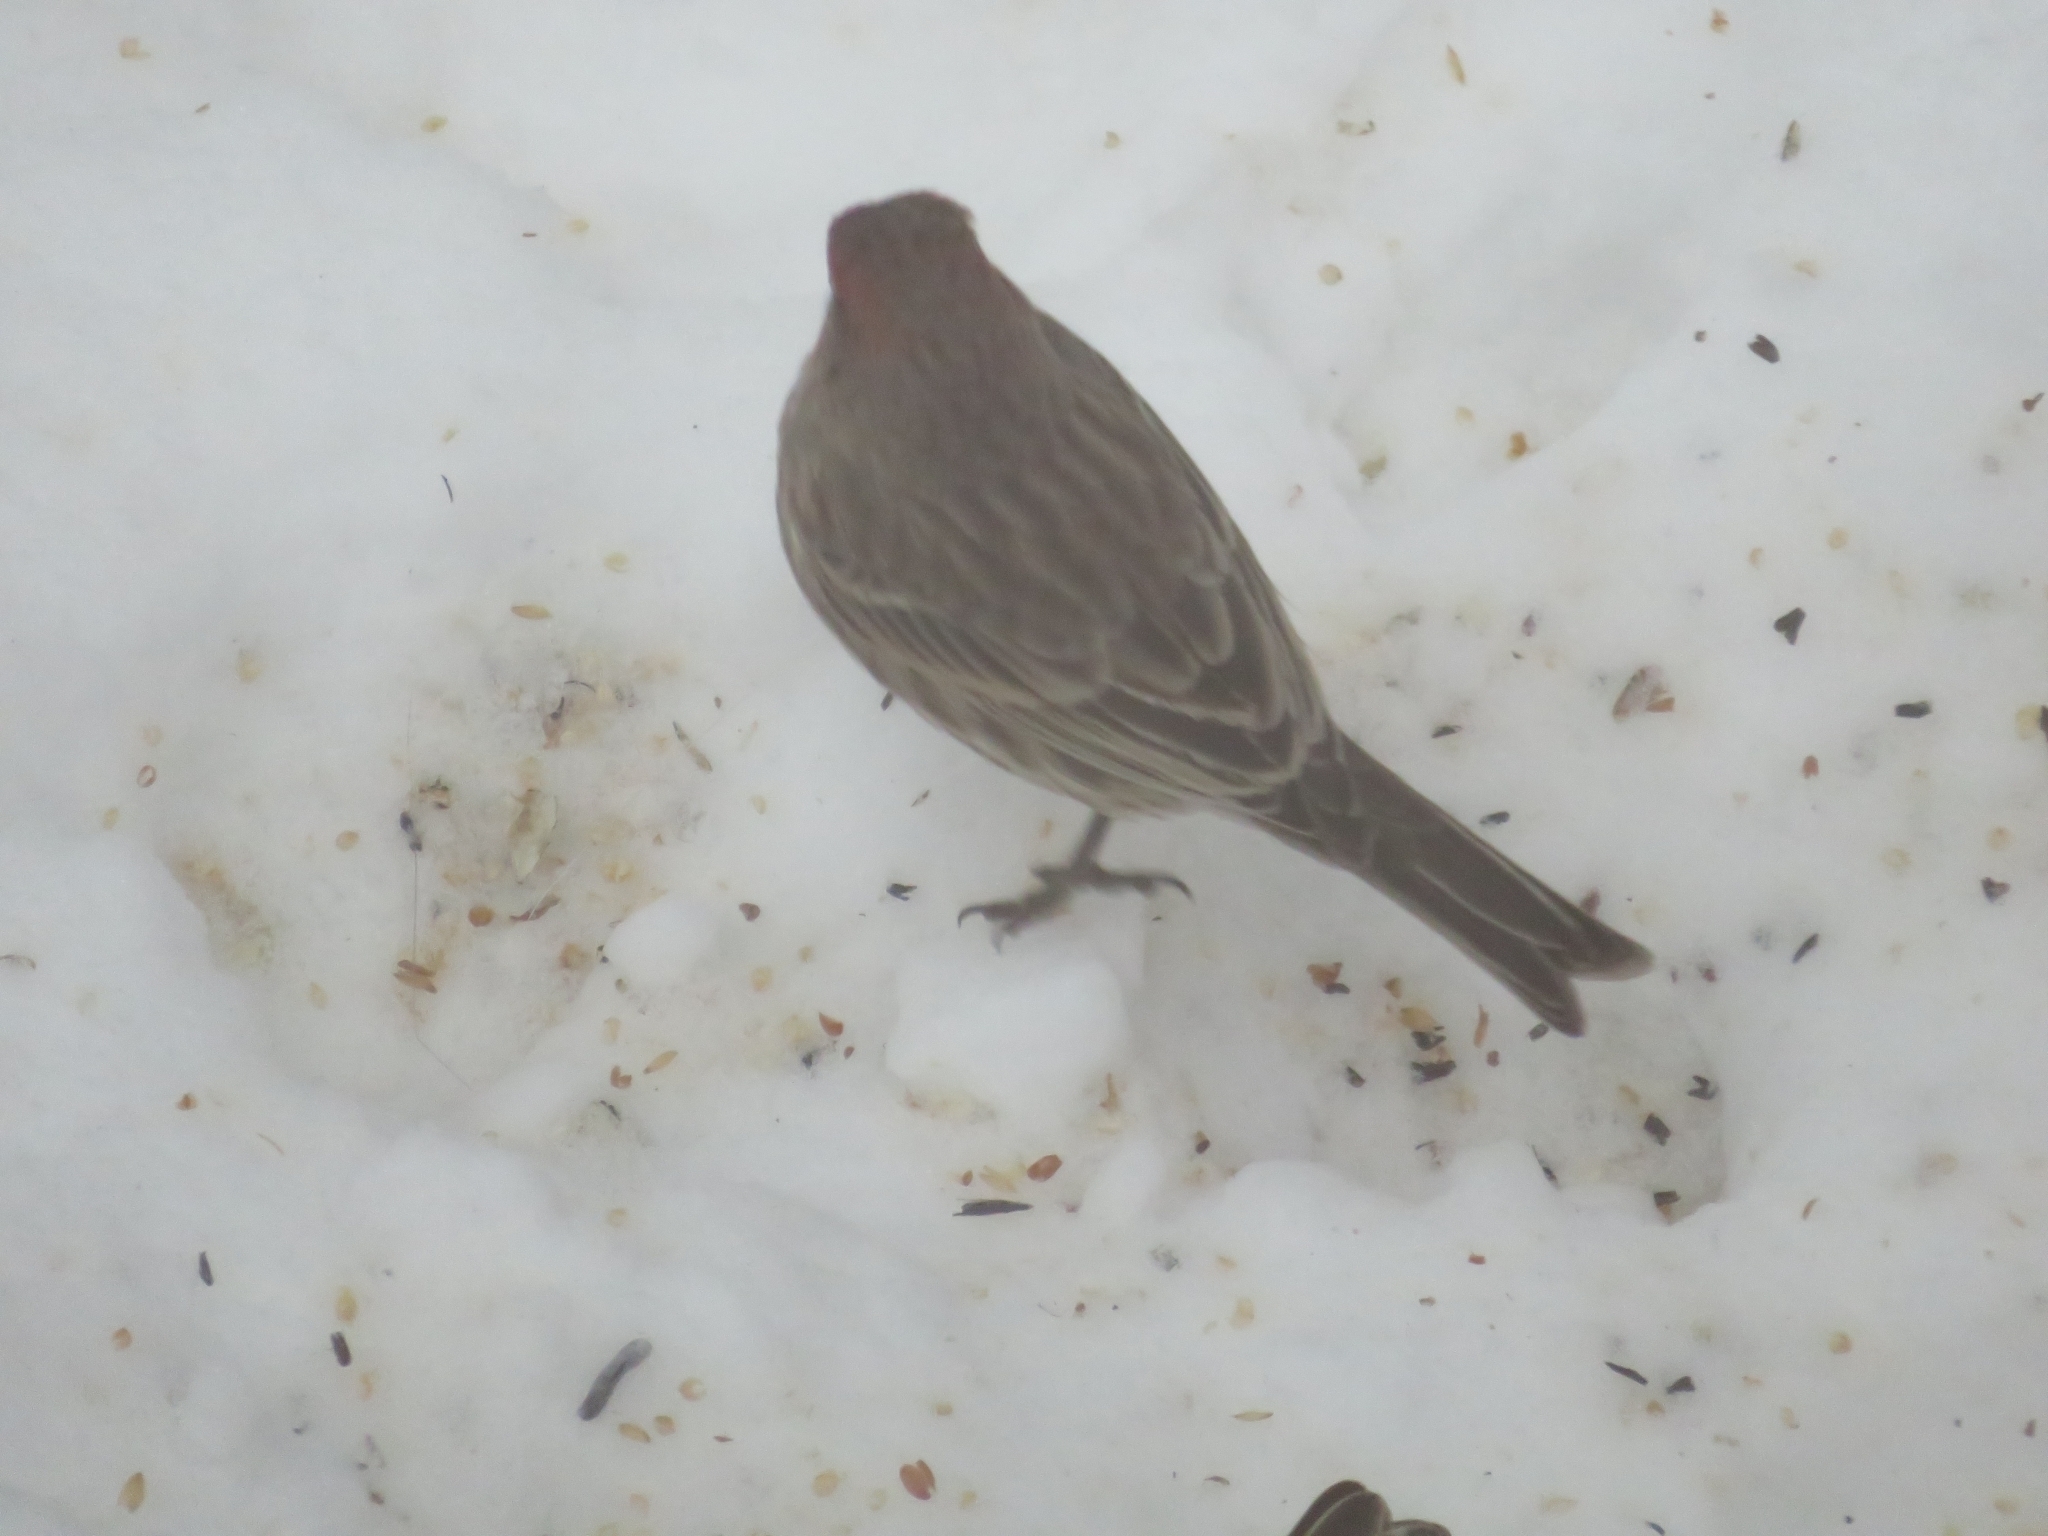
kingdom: Animalia
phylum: Chordata
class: Aves
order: Passeriformes
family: Fringillidae
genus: Haemorhous
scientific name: Haemorhous mexicanus
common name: House finch
